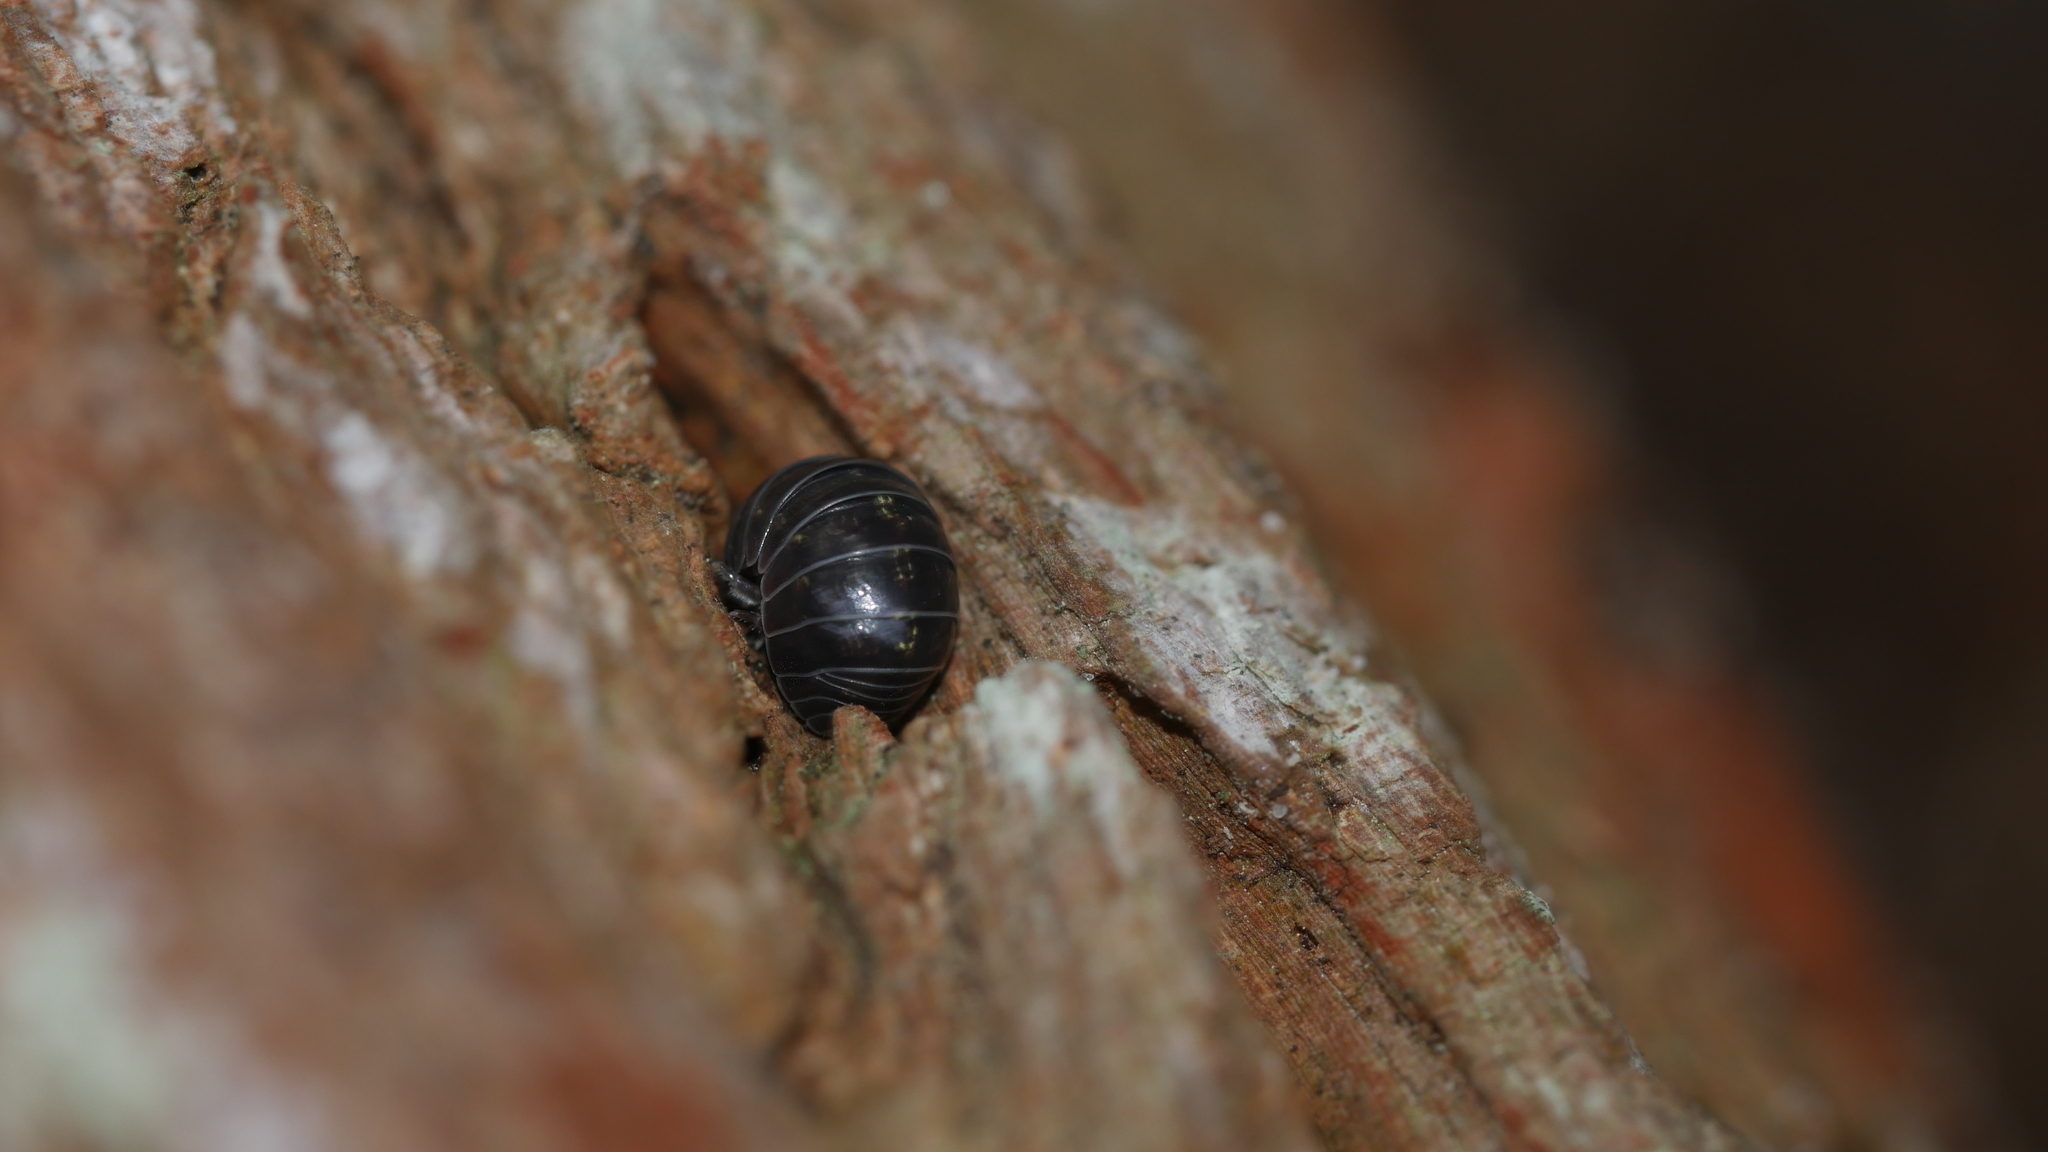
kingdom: Animalia
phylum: Arthropoda
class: Malacostraca
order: Isopoda
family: Armadillidiidae
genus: Armadillidium
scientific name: Armadillidium vulgare
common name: Common pill woodlouse
